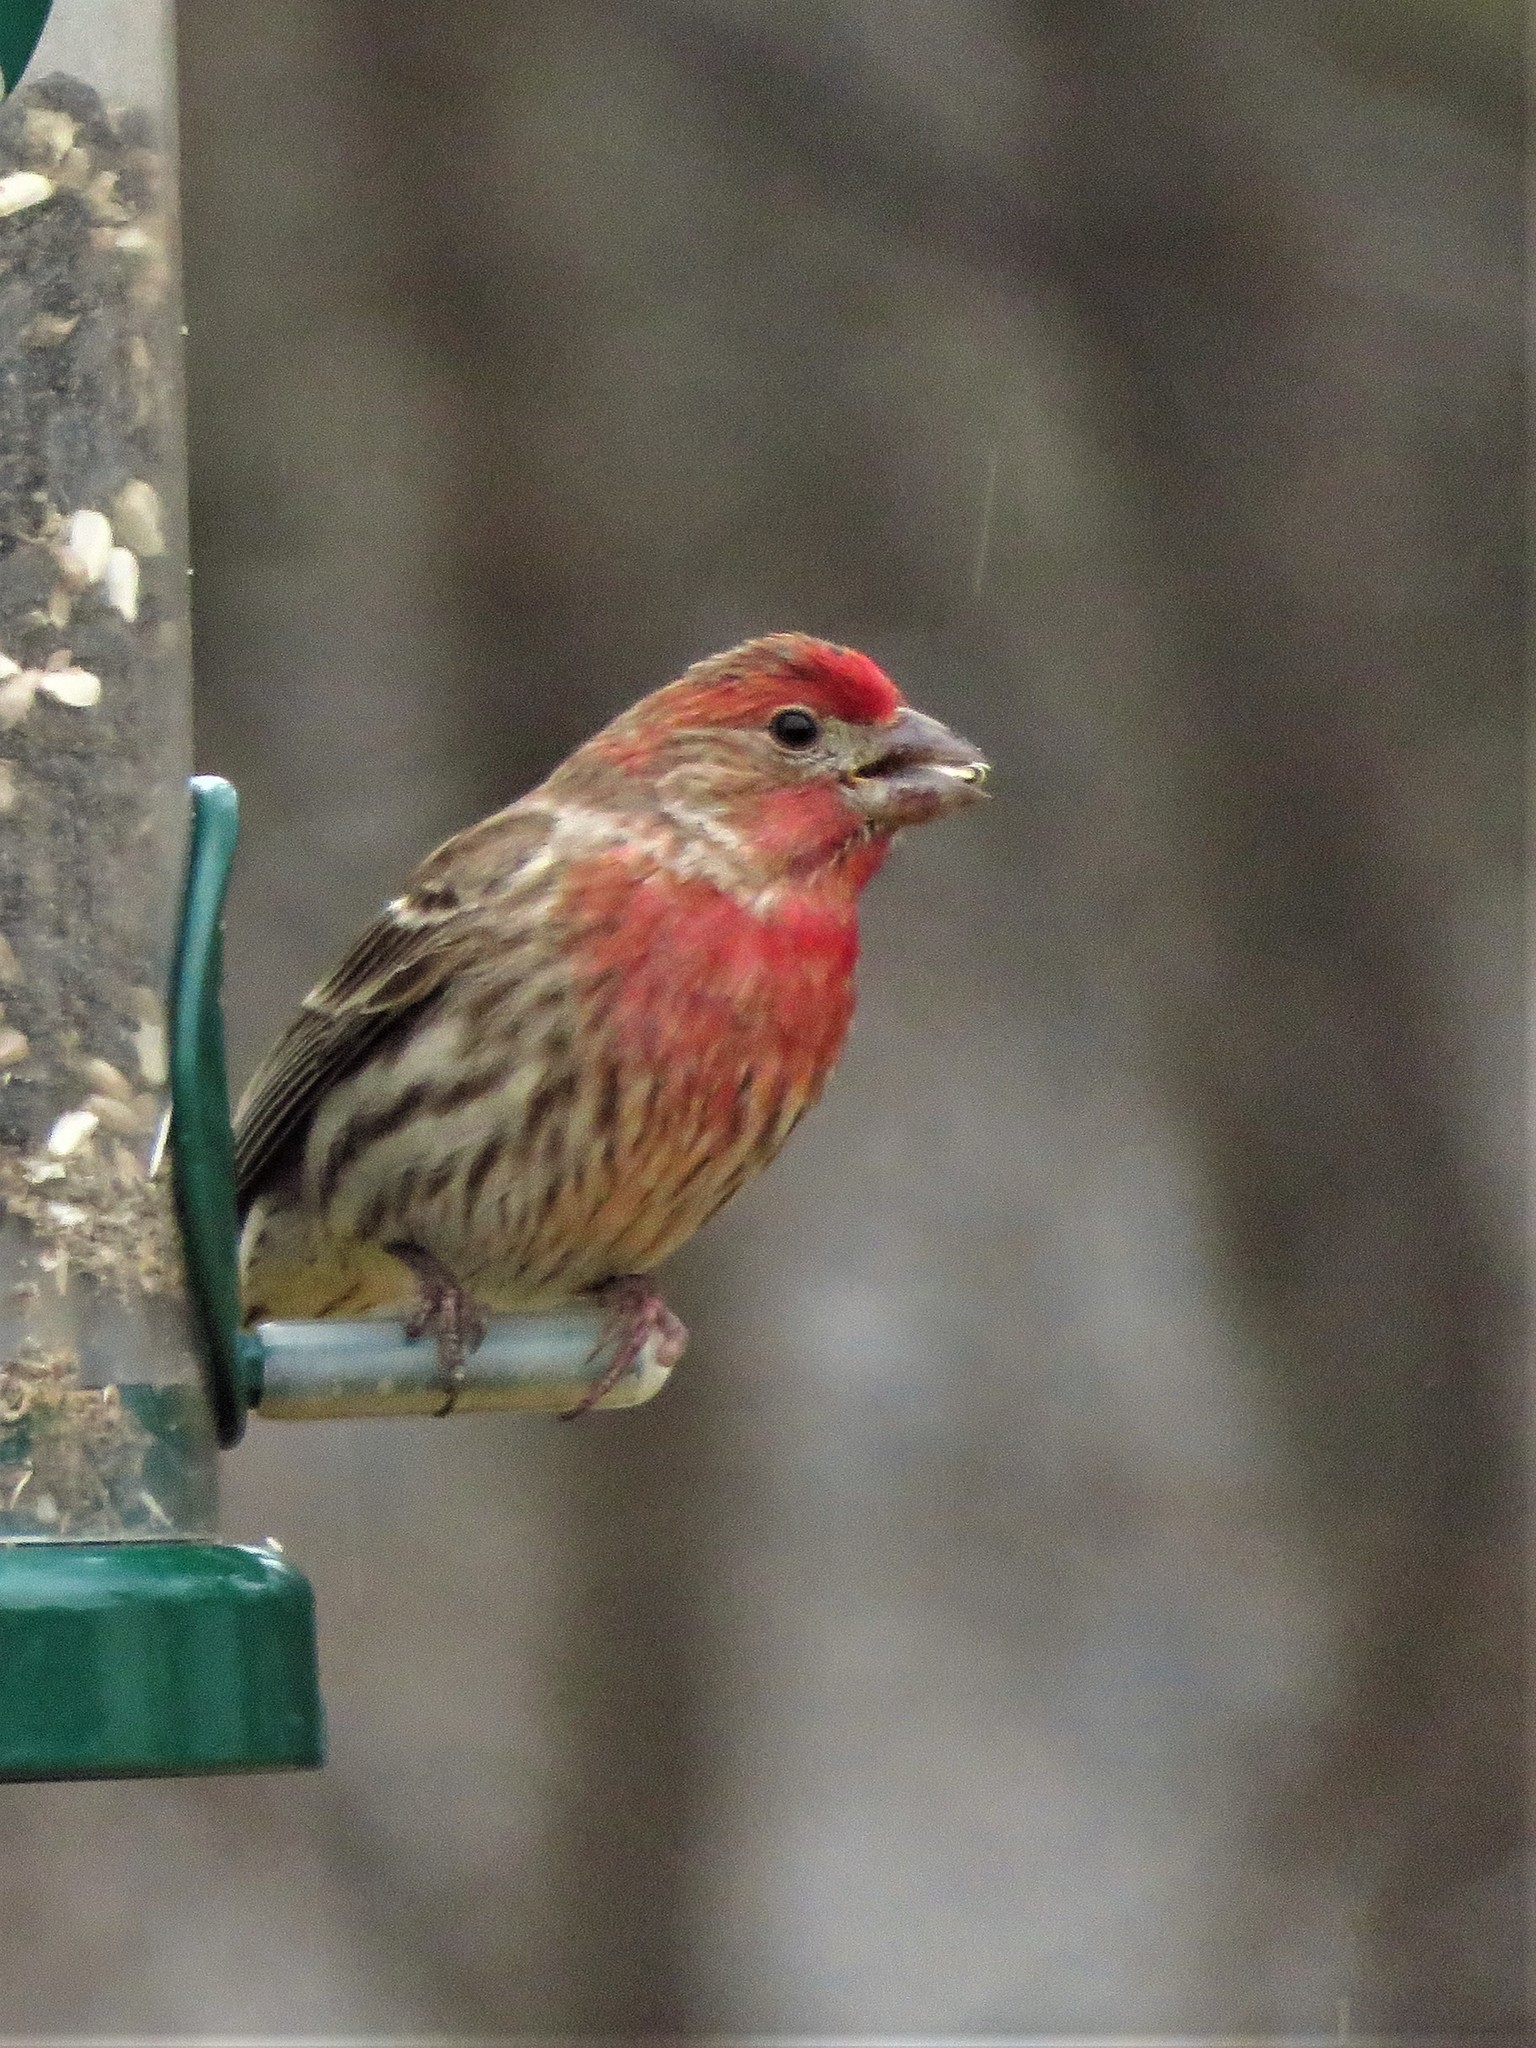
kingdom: Animalia
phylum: Chordata
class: Aves
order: Passeriformes
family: Fringillidae
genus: Haemorhous
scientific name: Haemorhous mexicanus
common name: House finch
